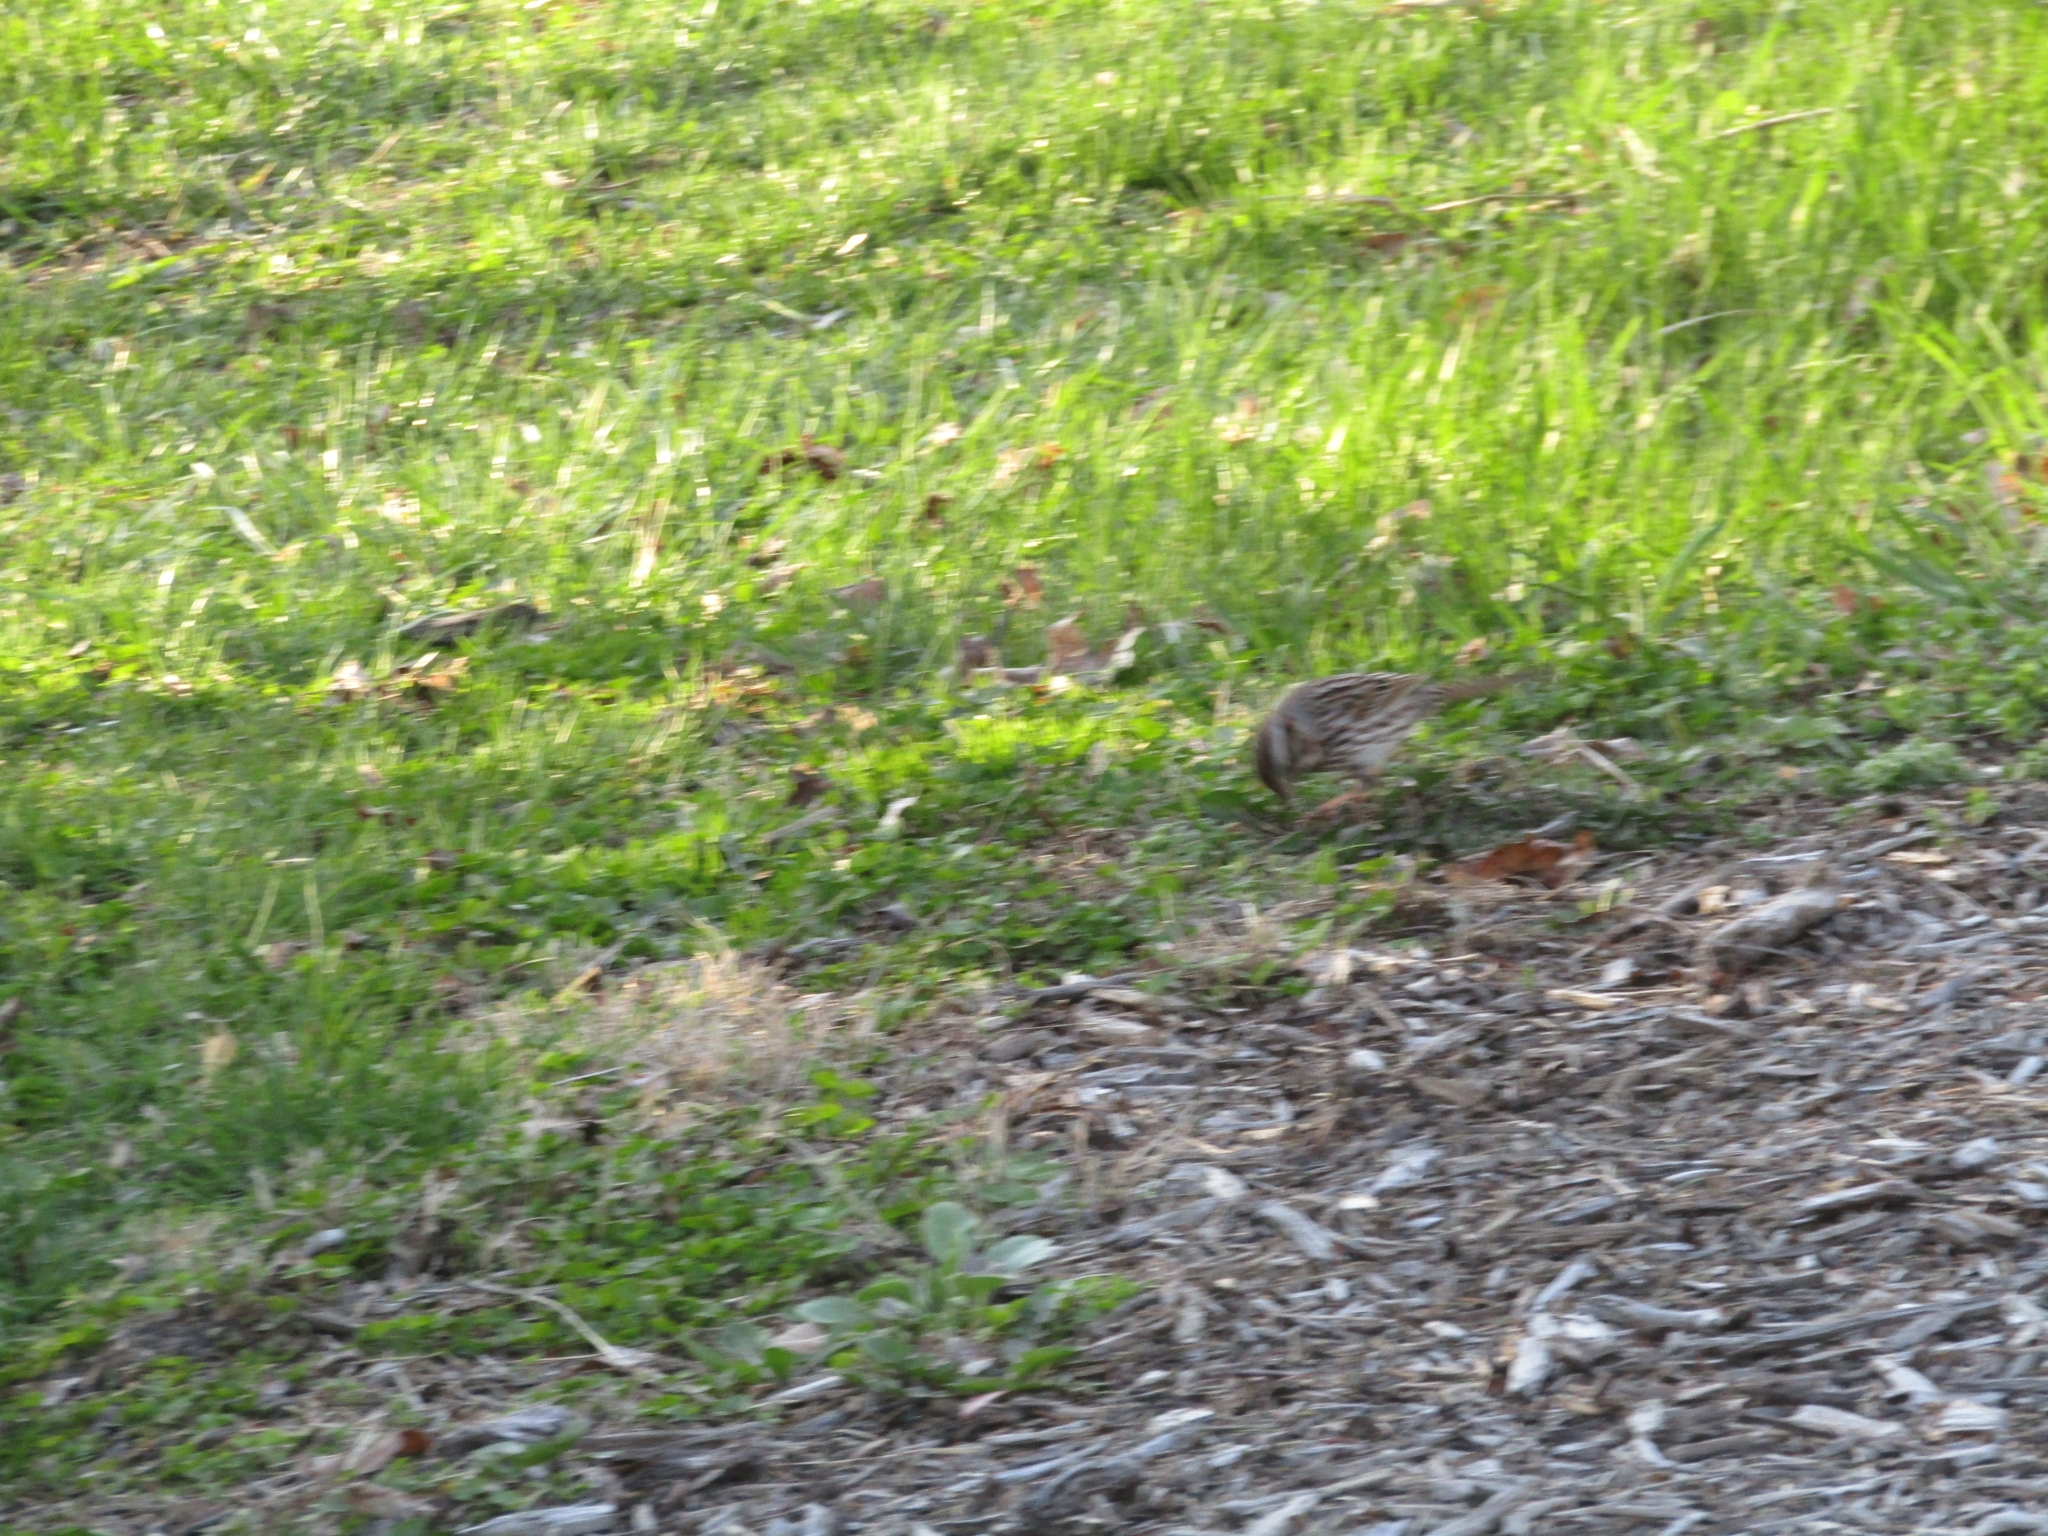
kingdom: Animalia
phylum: Chordata
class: Aves
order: Passeriformes
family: Passerellidae
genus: Melospiza
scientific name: Melospiza melodia
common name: Song sparrow
